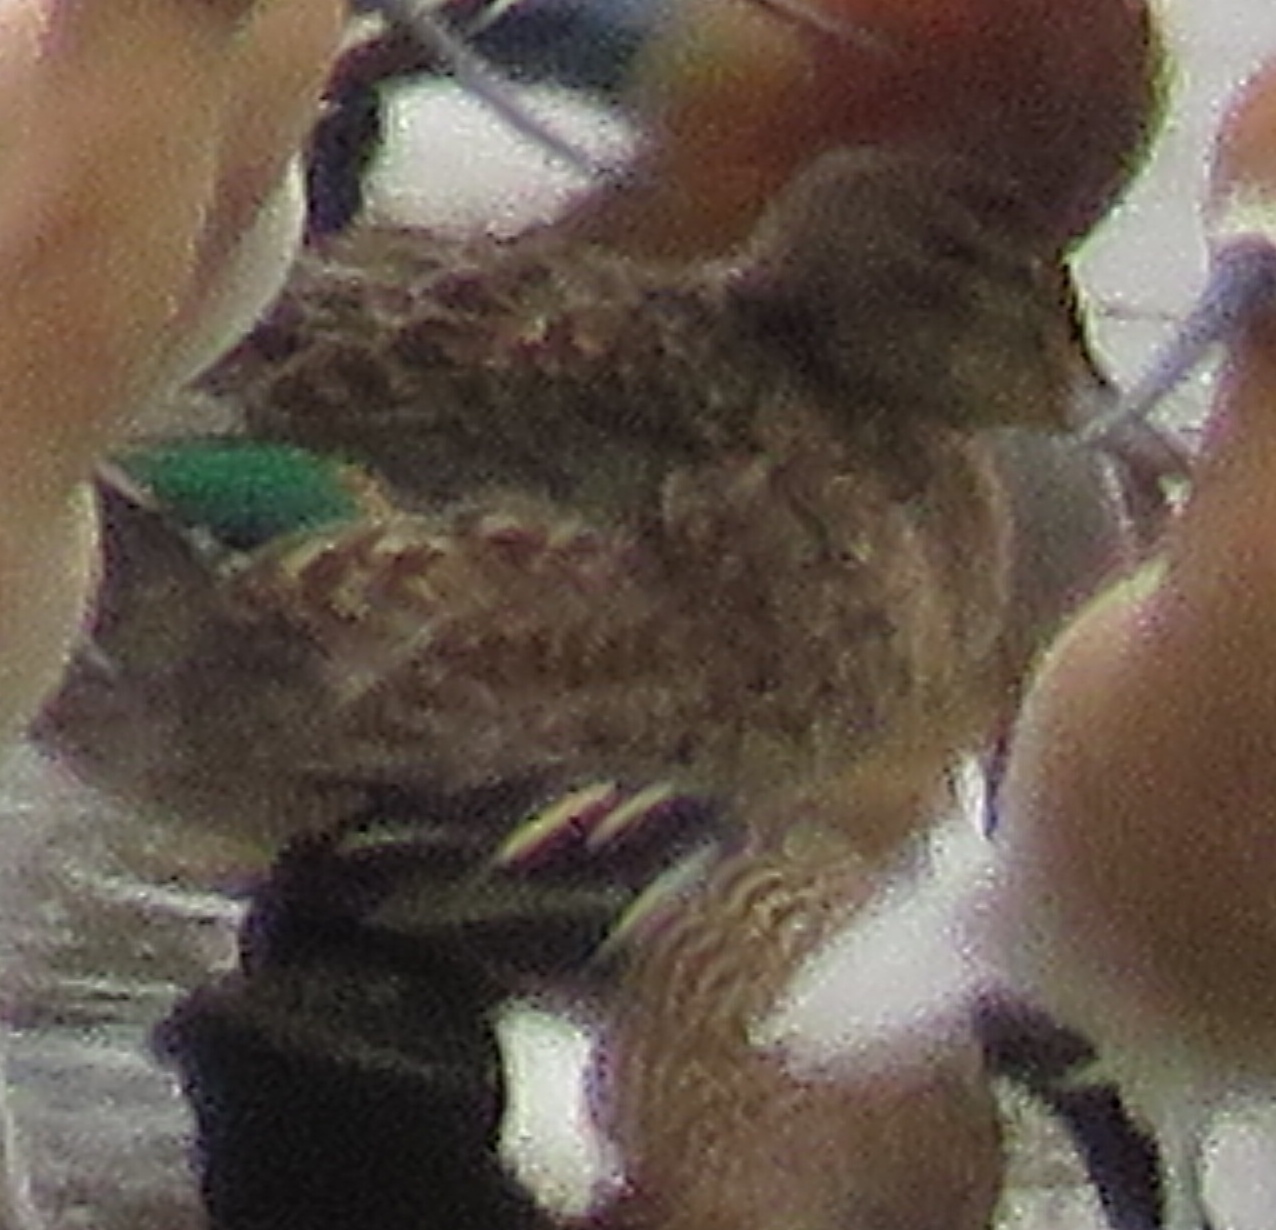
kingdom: Animalia
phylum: Chordata
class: Aves
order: Anseriformes
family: Anatidae
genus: Anas
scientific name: Anas crecca
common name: Eurasian teal
